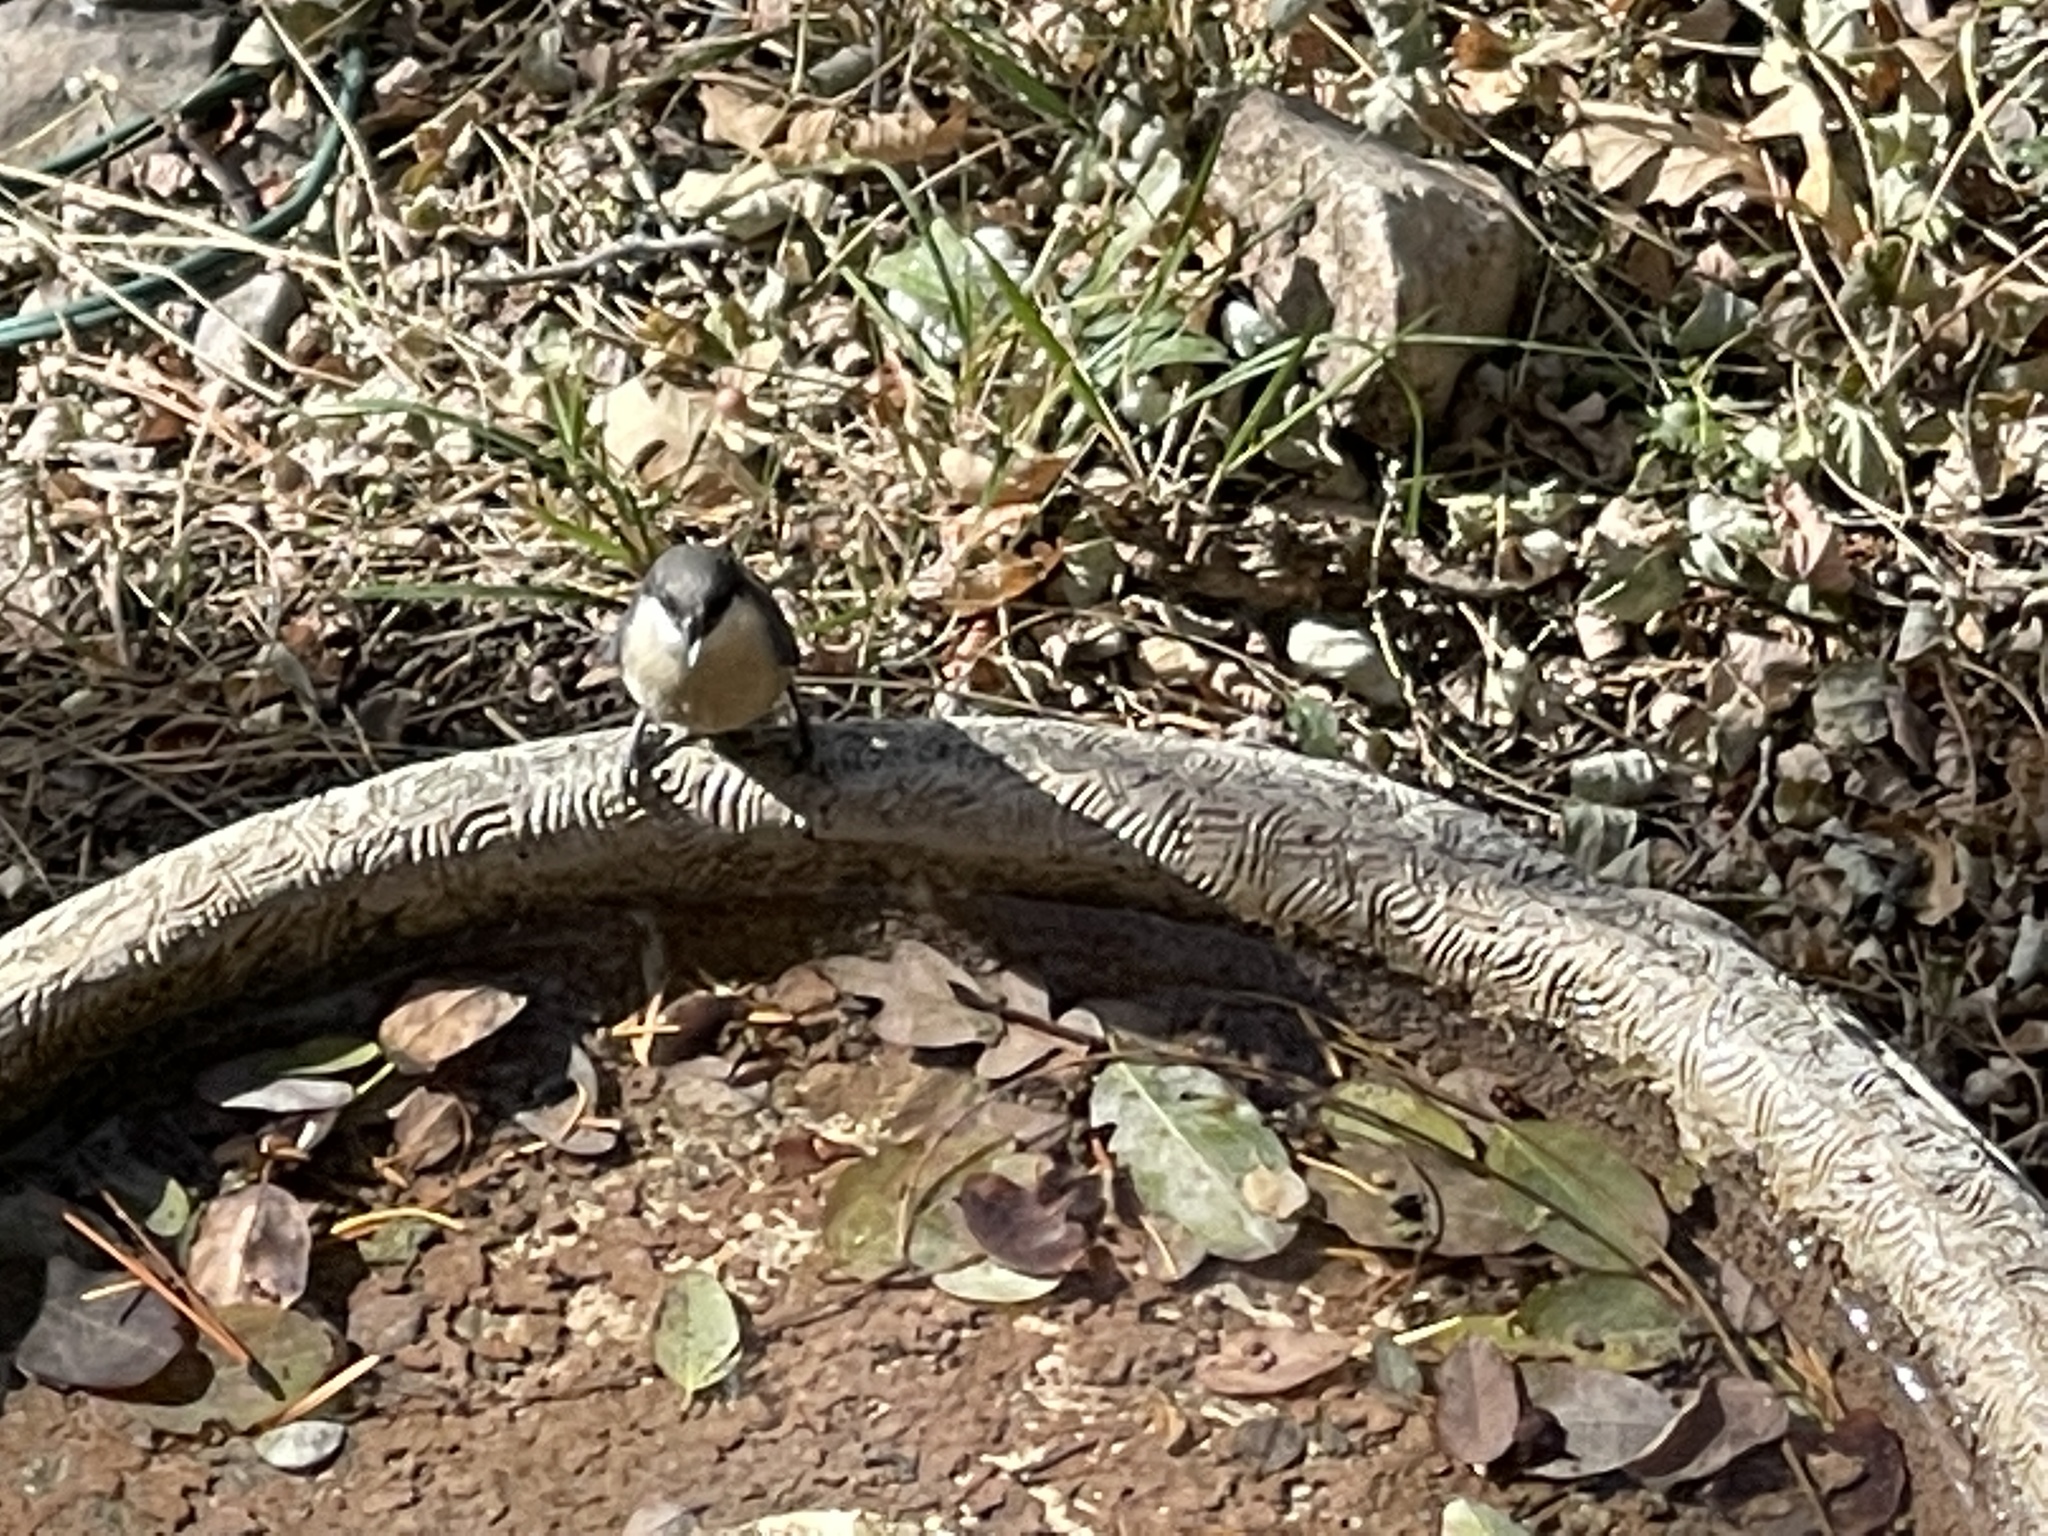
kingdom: Animalia
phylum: Chordata
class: Aves
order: Passeriformes
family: Sittidae
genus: Sitta
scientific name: Sitta pygmaea
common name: Pygmy nuthatch
